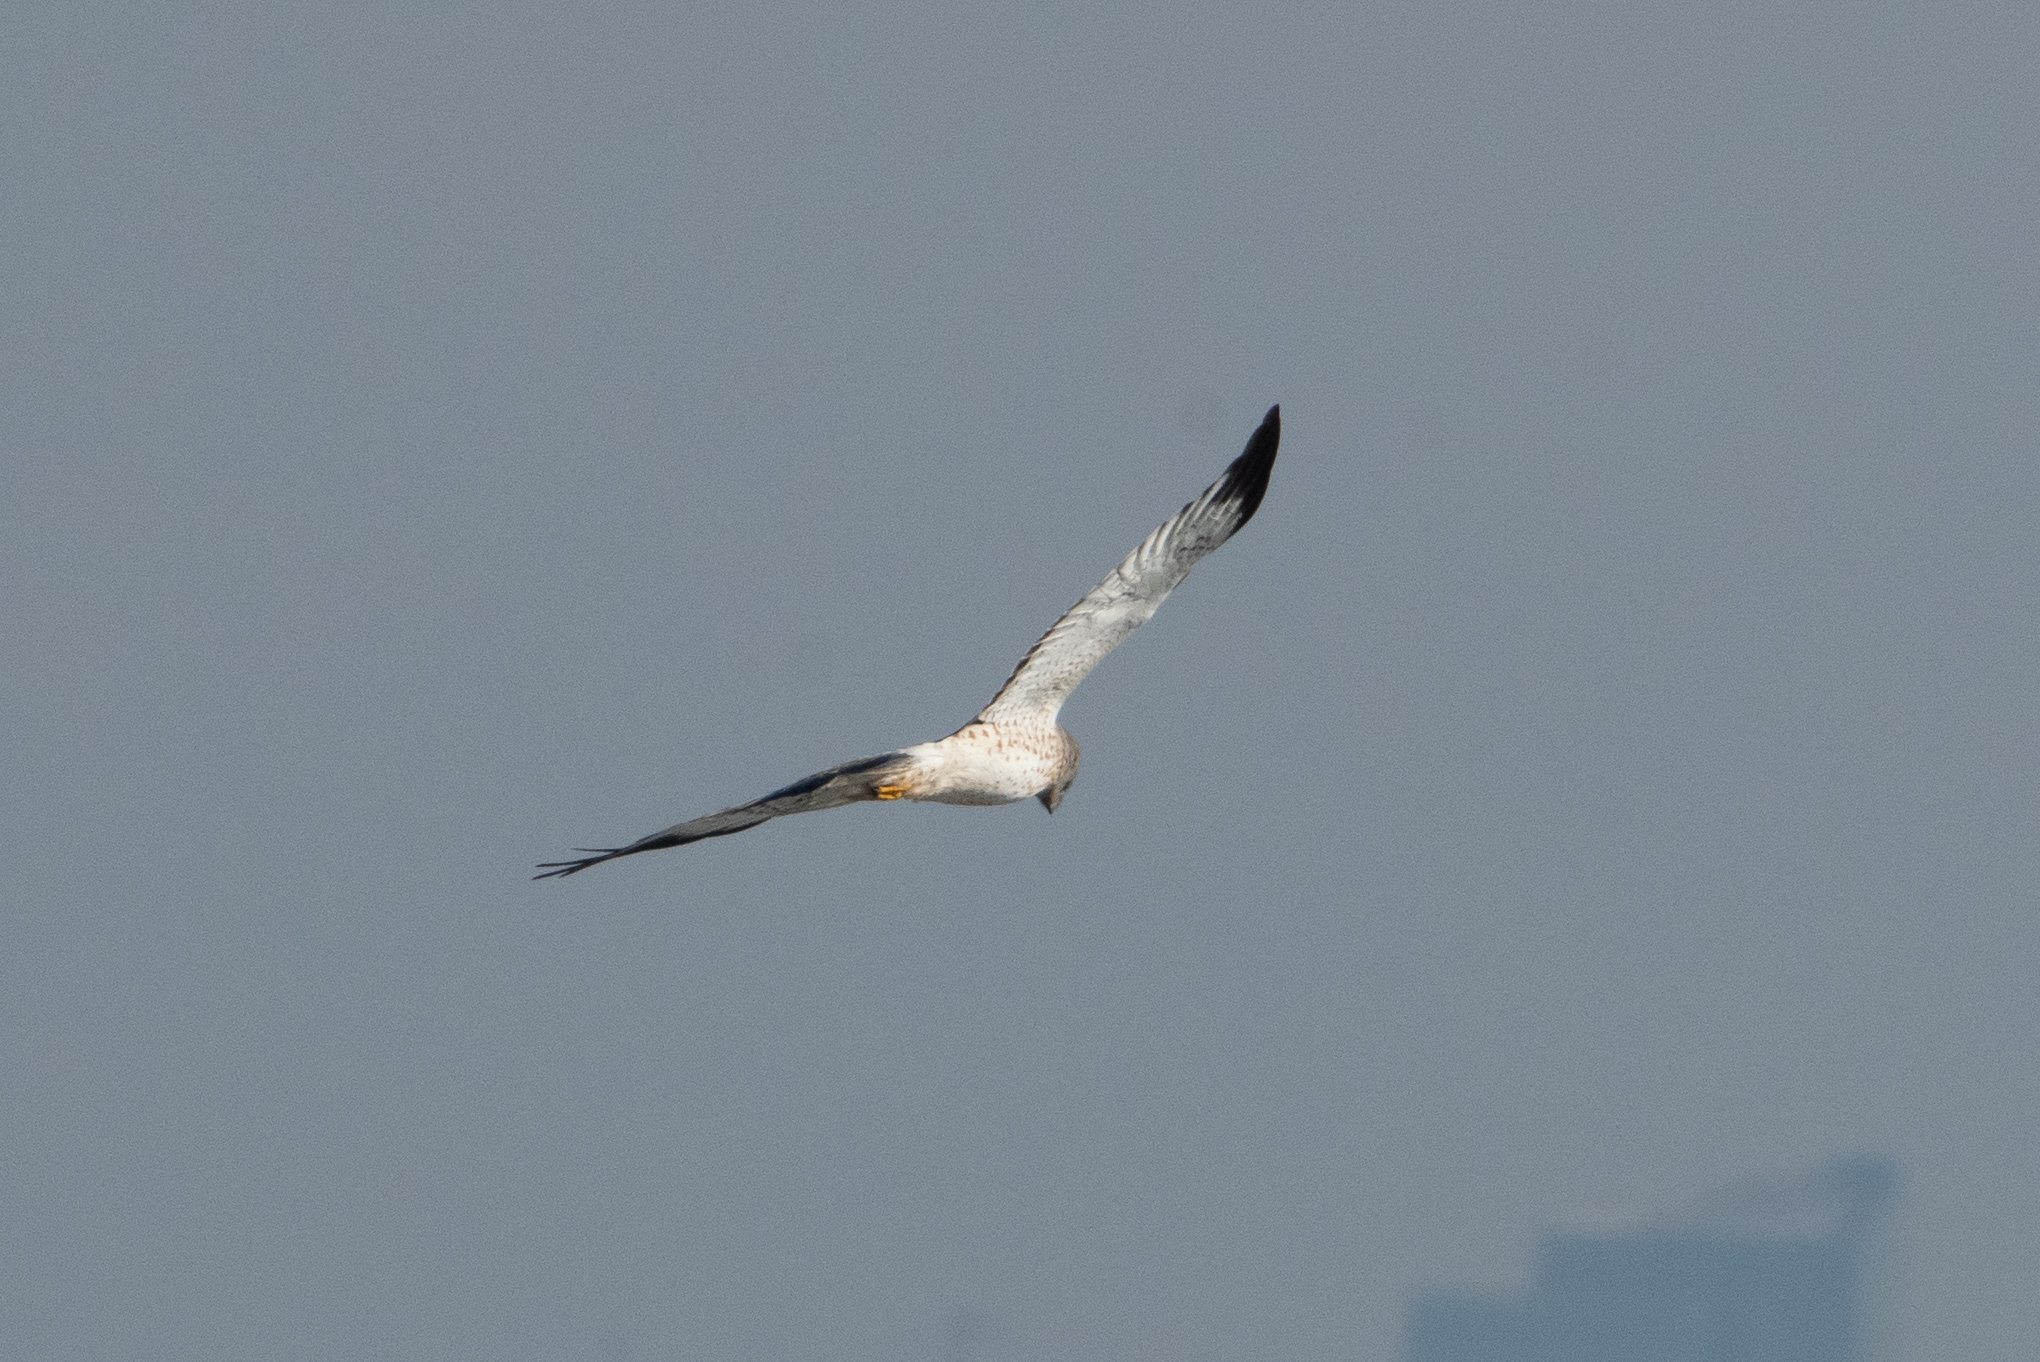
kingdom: Animalia
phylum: Chordata
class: Aves
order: Accipitriformes
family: Accipitridae
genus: Circus
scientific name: Circus cyaneus
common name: Hen harrier
